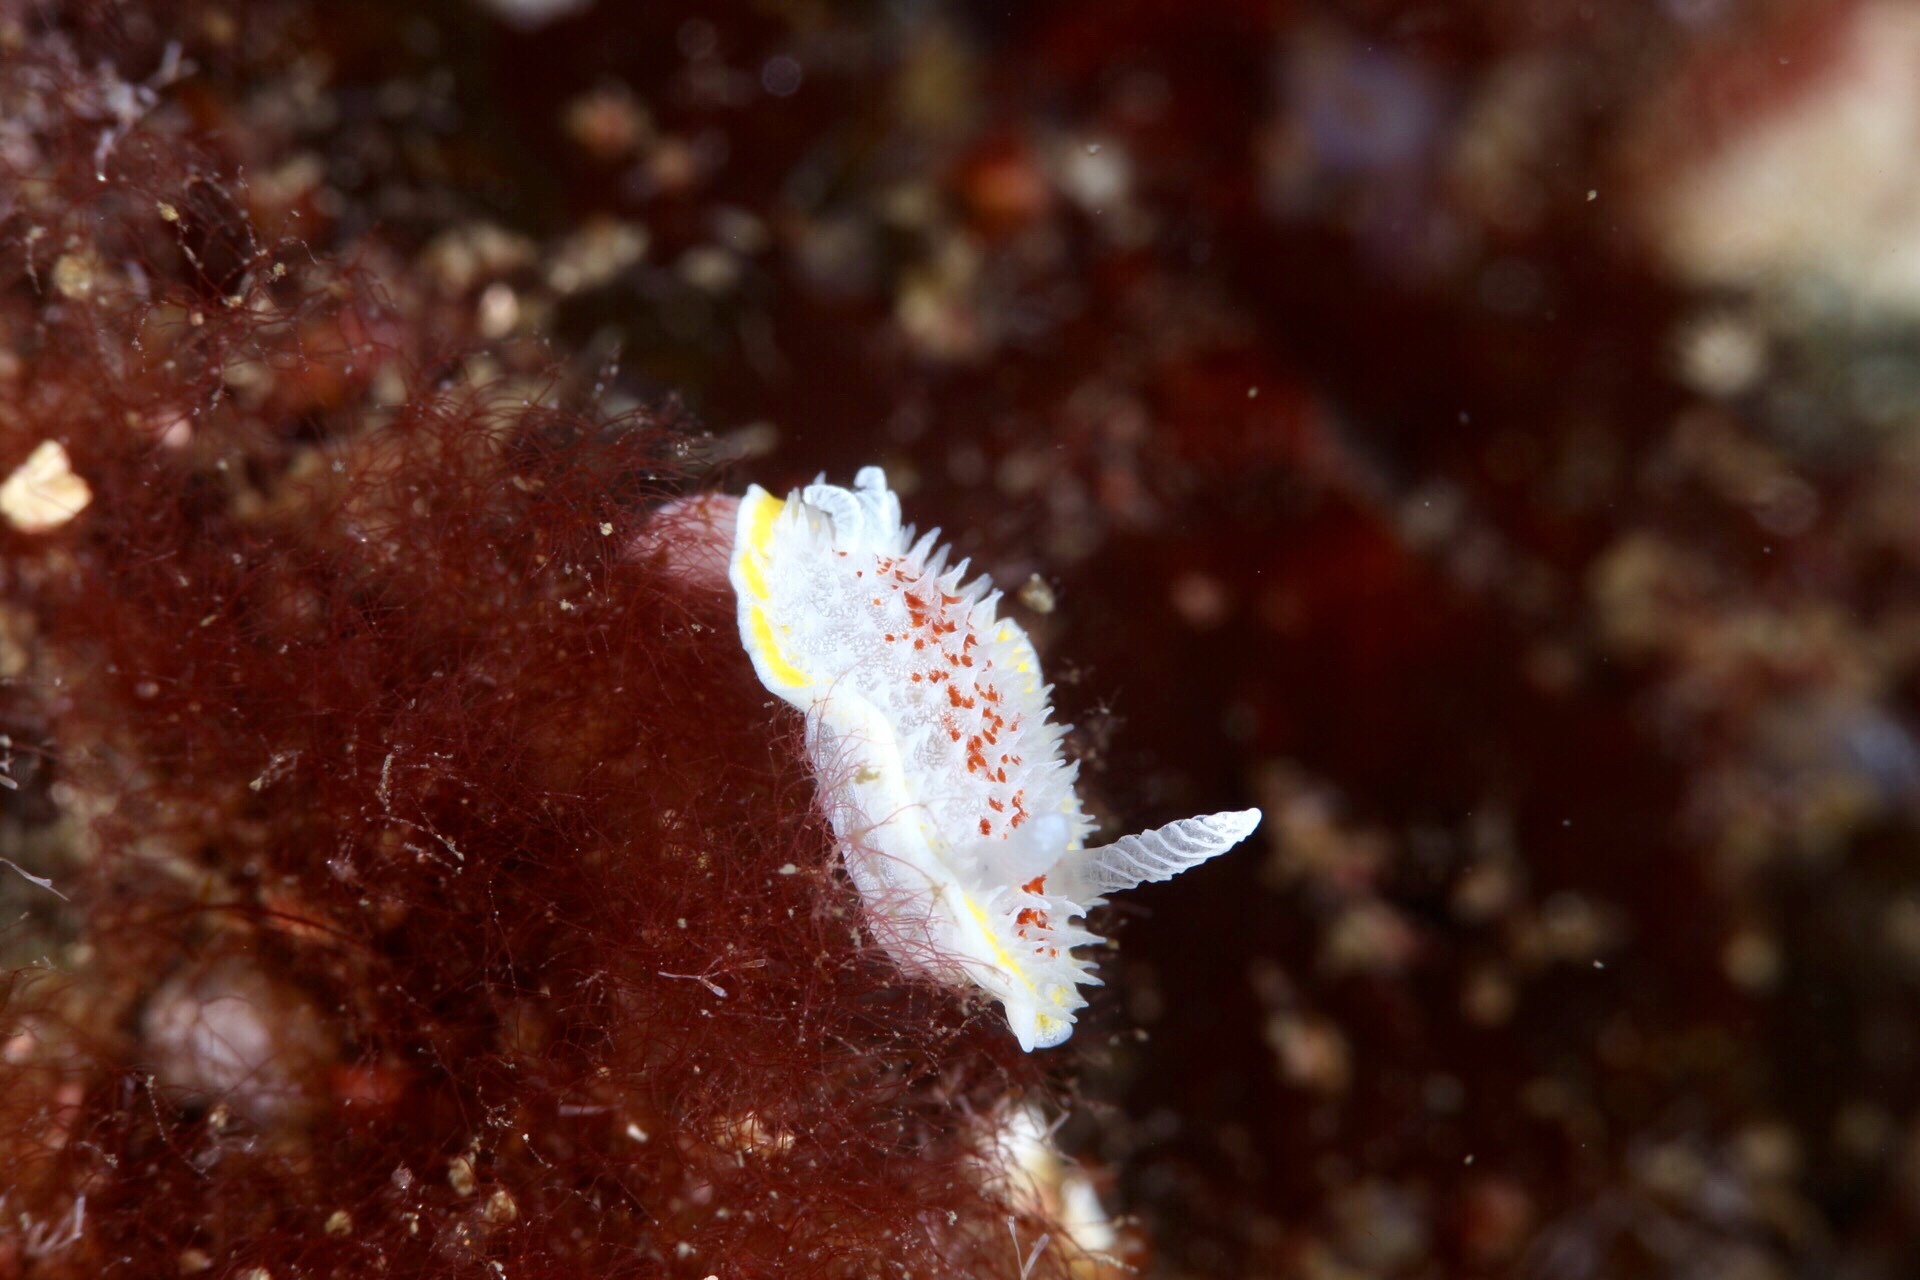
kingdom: Animalia
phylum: Mollusca
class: Gastropoda
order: Nudibranchia
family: Calycidorididae
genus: Diaphorodoris
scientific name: Diaphorodoris luteocincta
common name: Fried egg nudibranch
